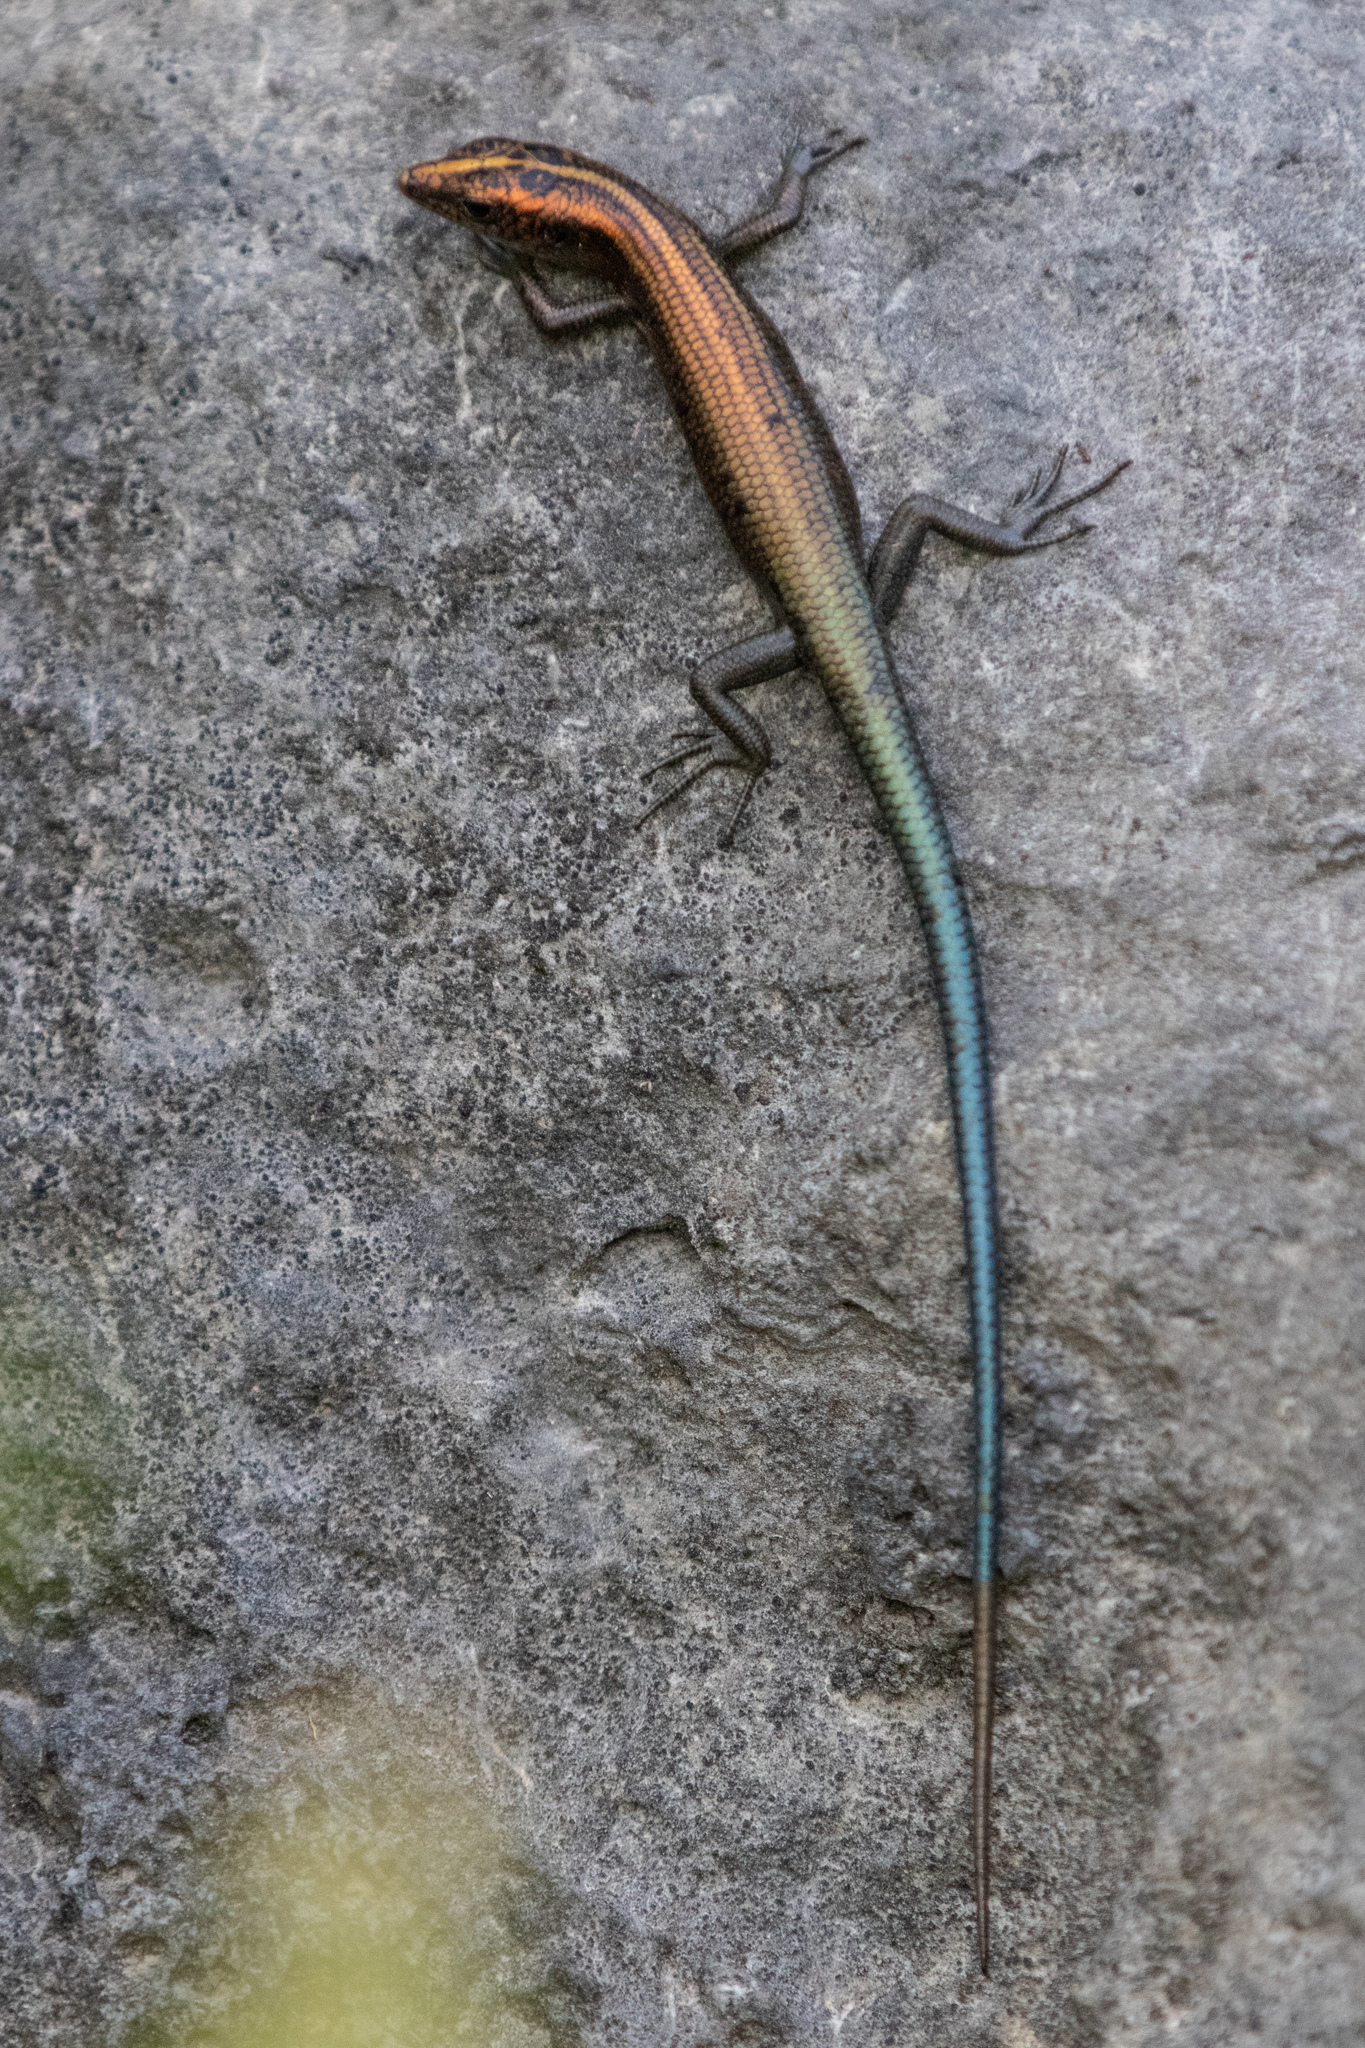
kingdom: Animalia
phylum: Chordata
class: Squamata
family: Scincidae
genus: Emoia
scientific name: Emoia cyanura
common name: Copper-tailed skink
